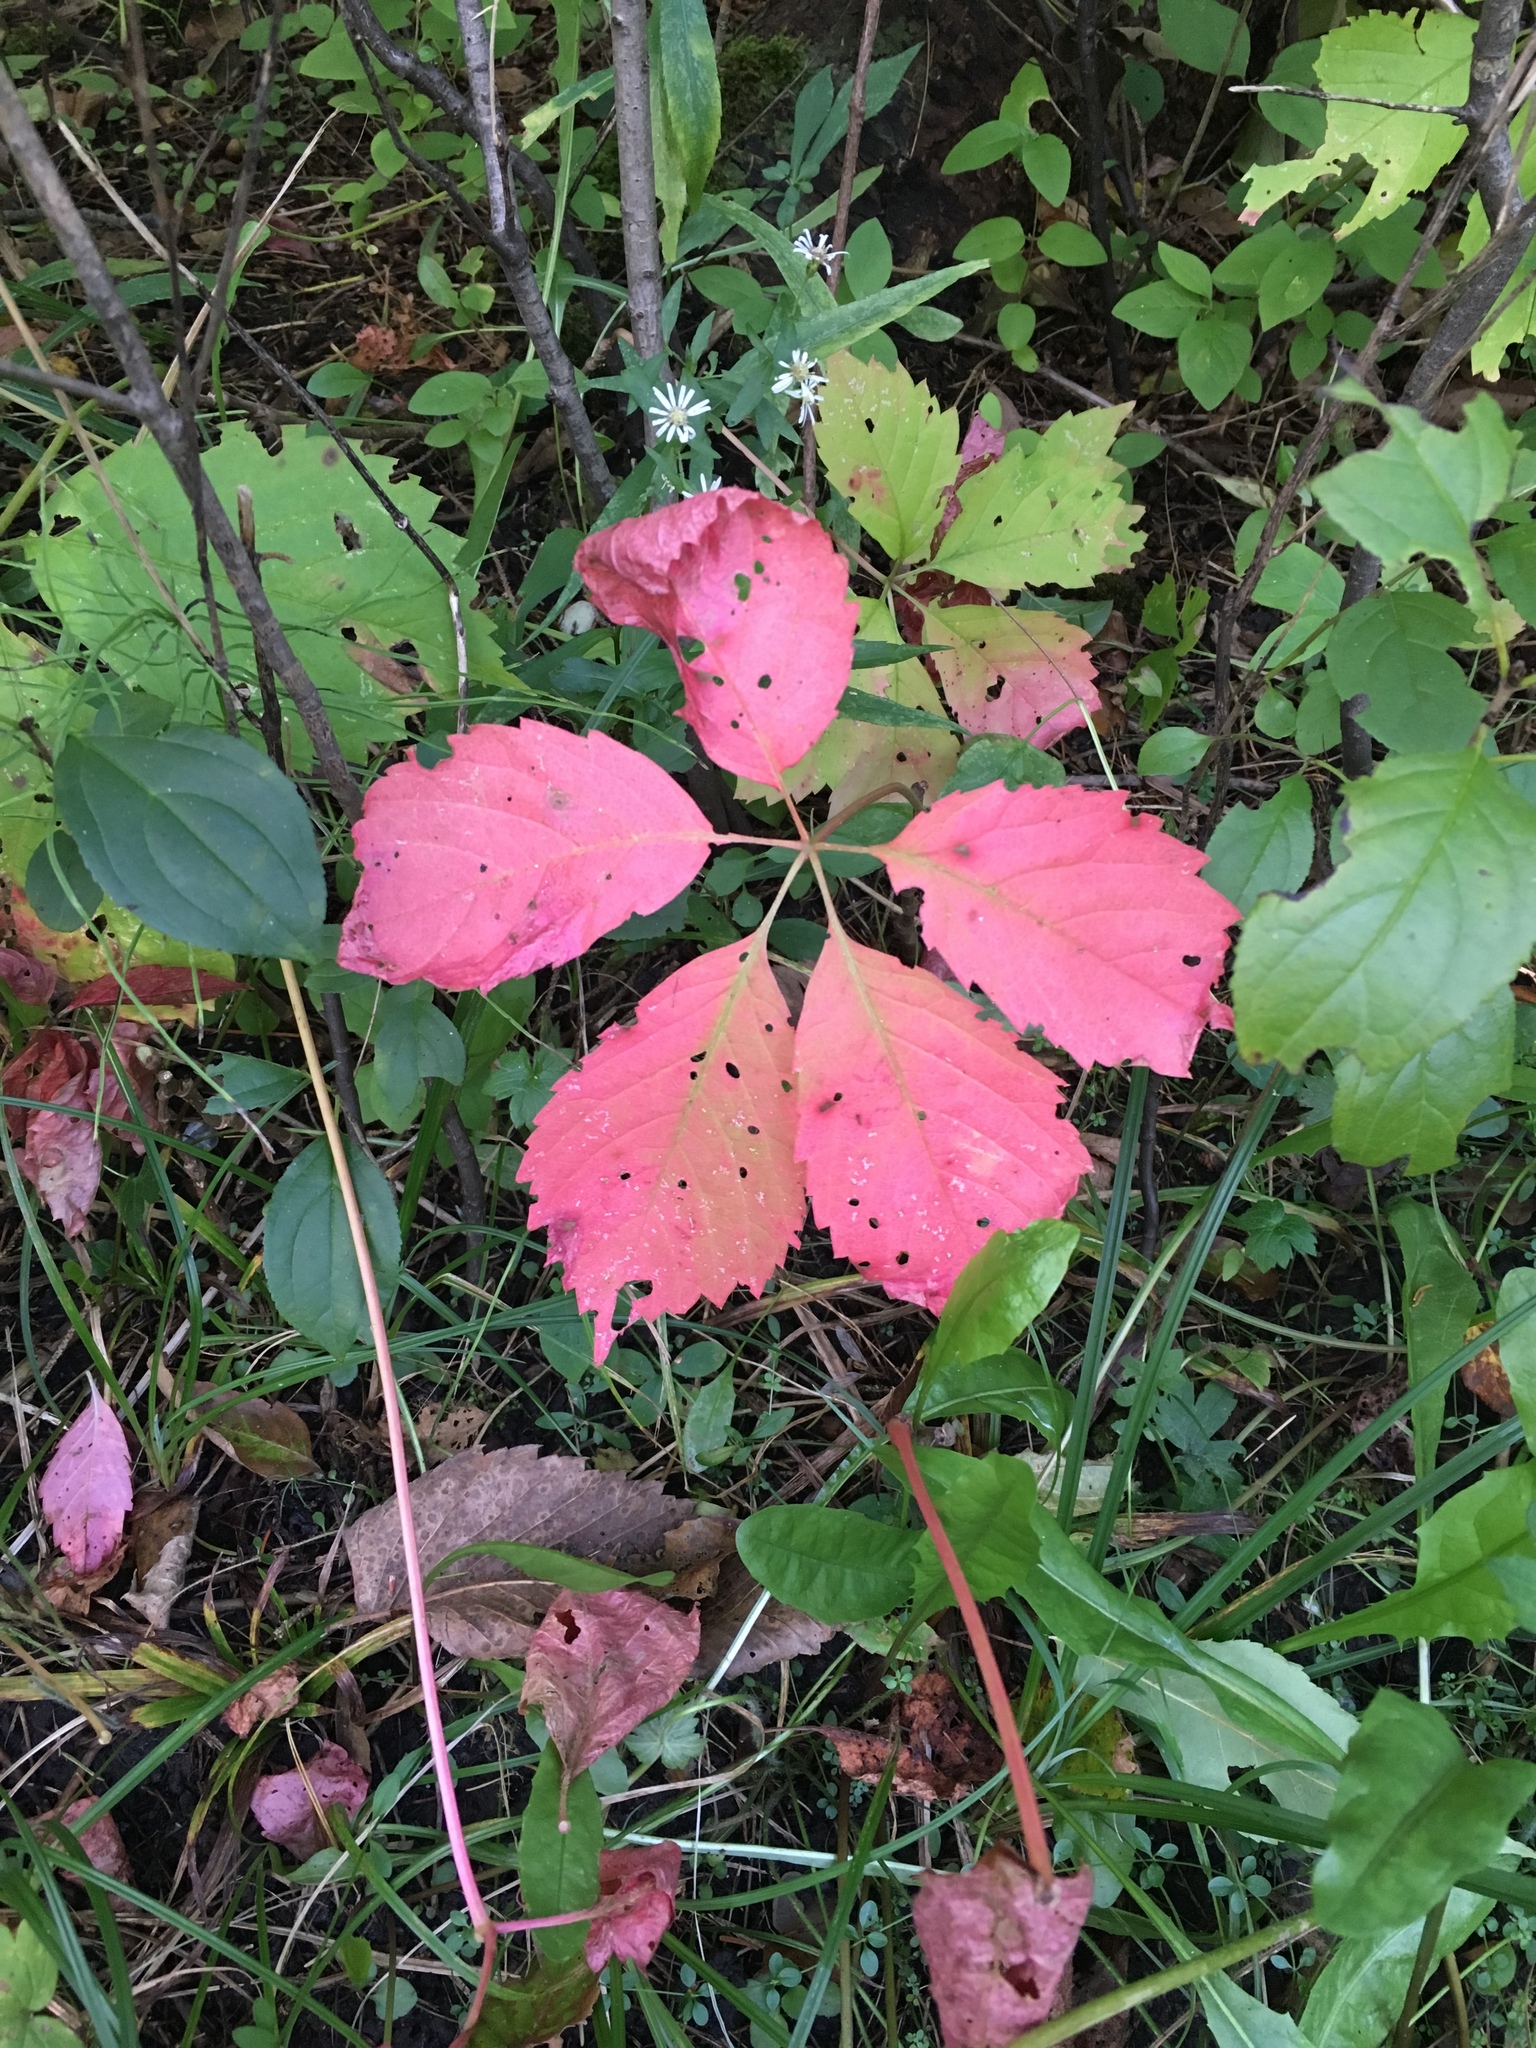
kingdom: Plantae
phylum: Tracheophyta
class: Magnoliopsida
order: Vitales
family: Vitaceae
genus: Parthenocissus
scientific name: Parthenocissus quinquefolia
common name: Virginia-creeper
